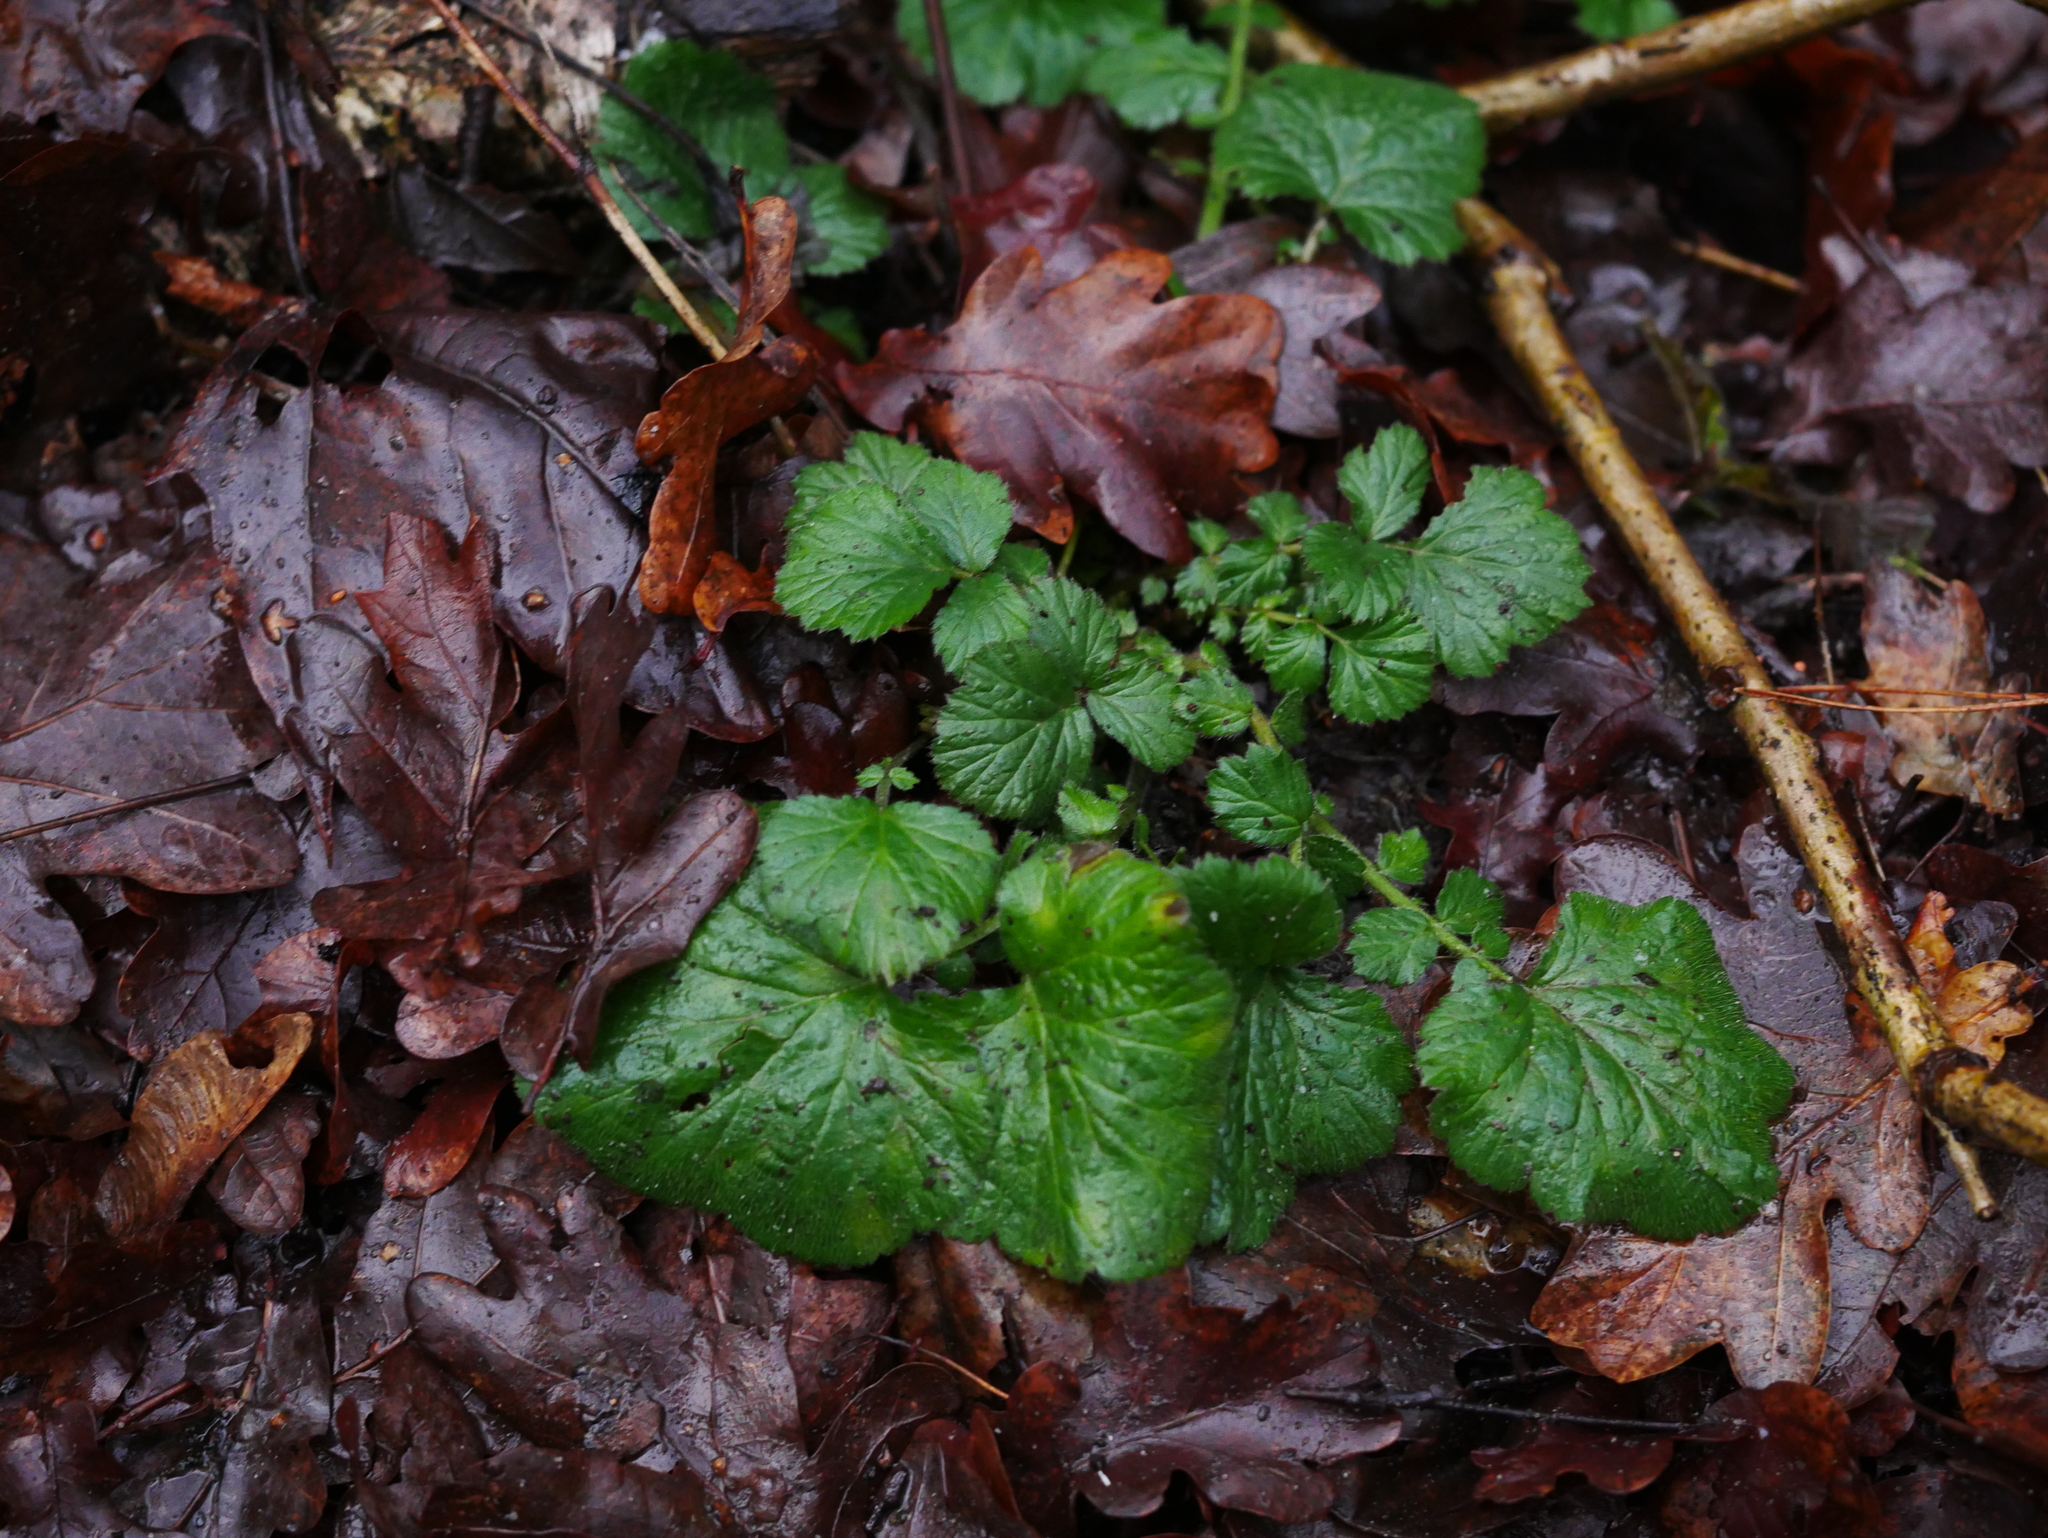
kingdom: Plantae
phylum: Tracheophyta
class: Magnoliopsida
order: Rosales
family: Rosaceae
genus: Geum
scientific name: Geum urbanum
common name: Wood avens
